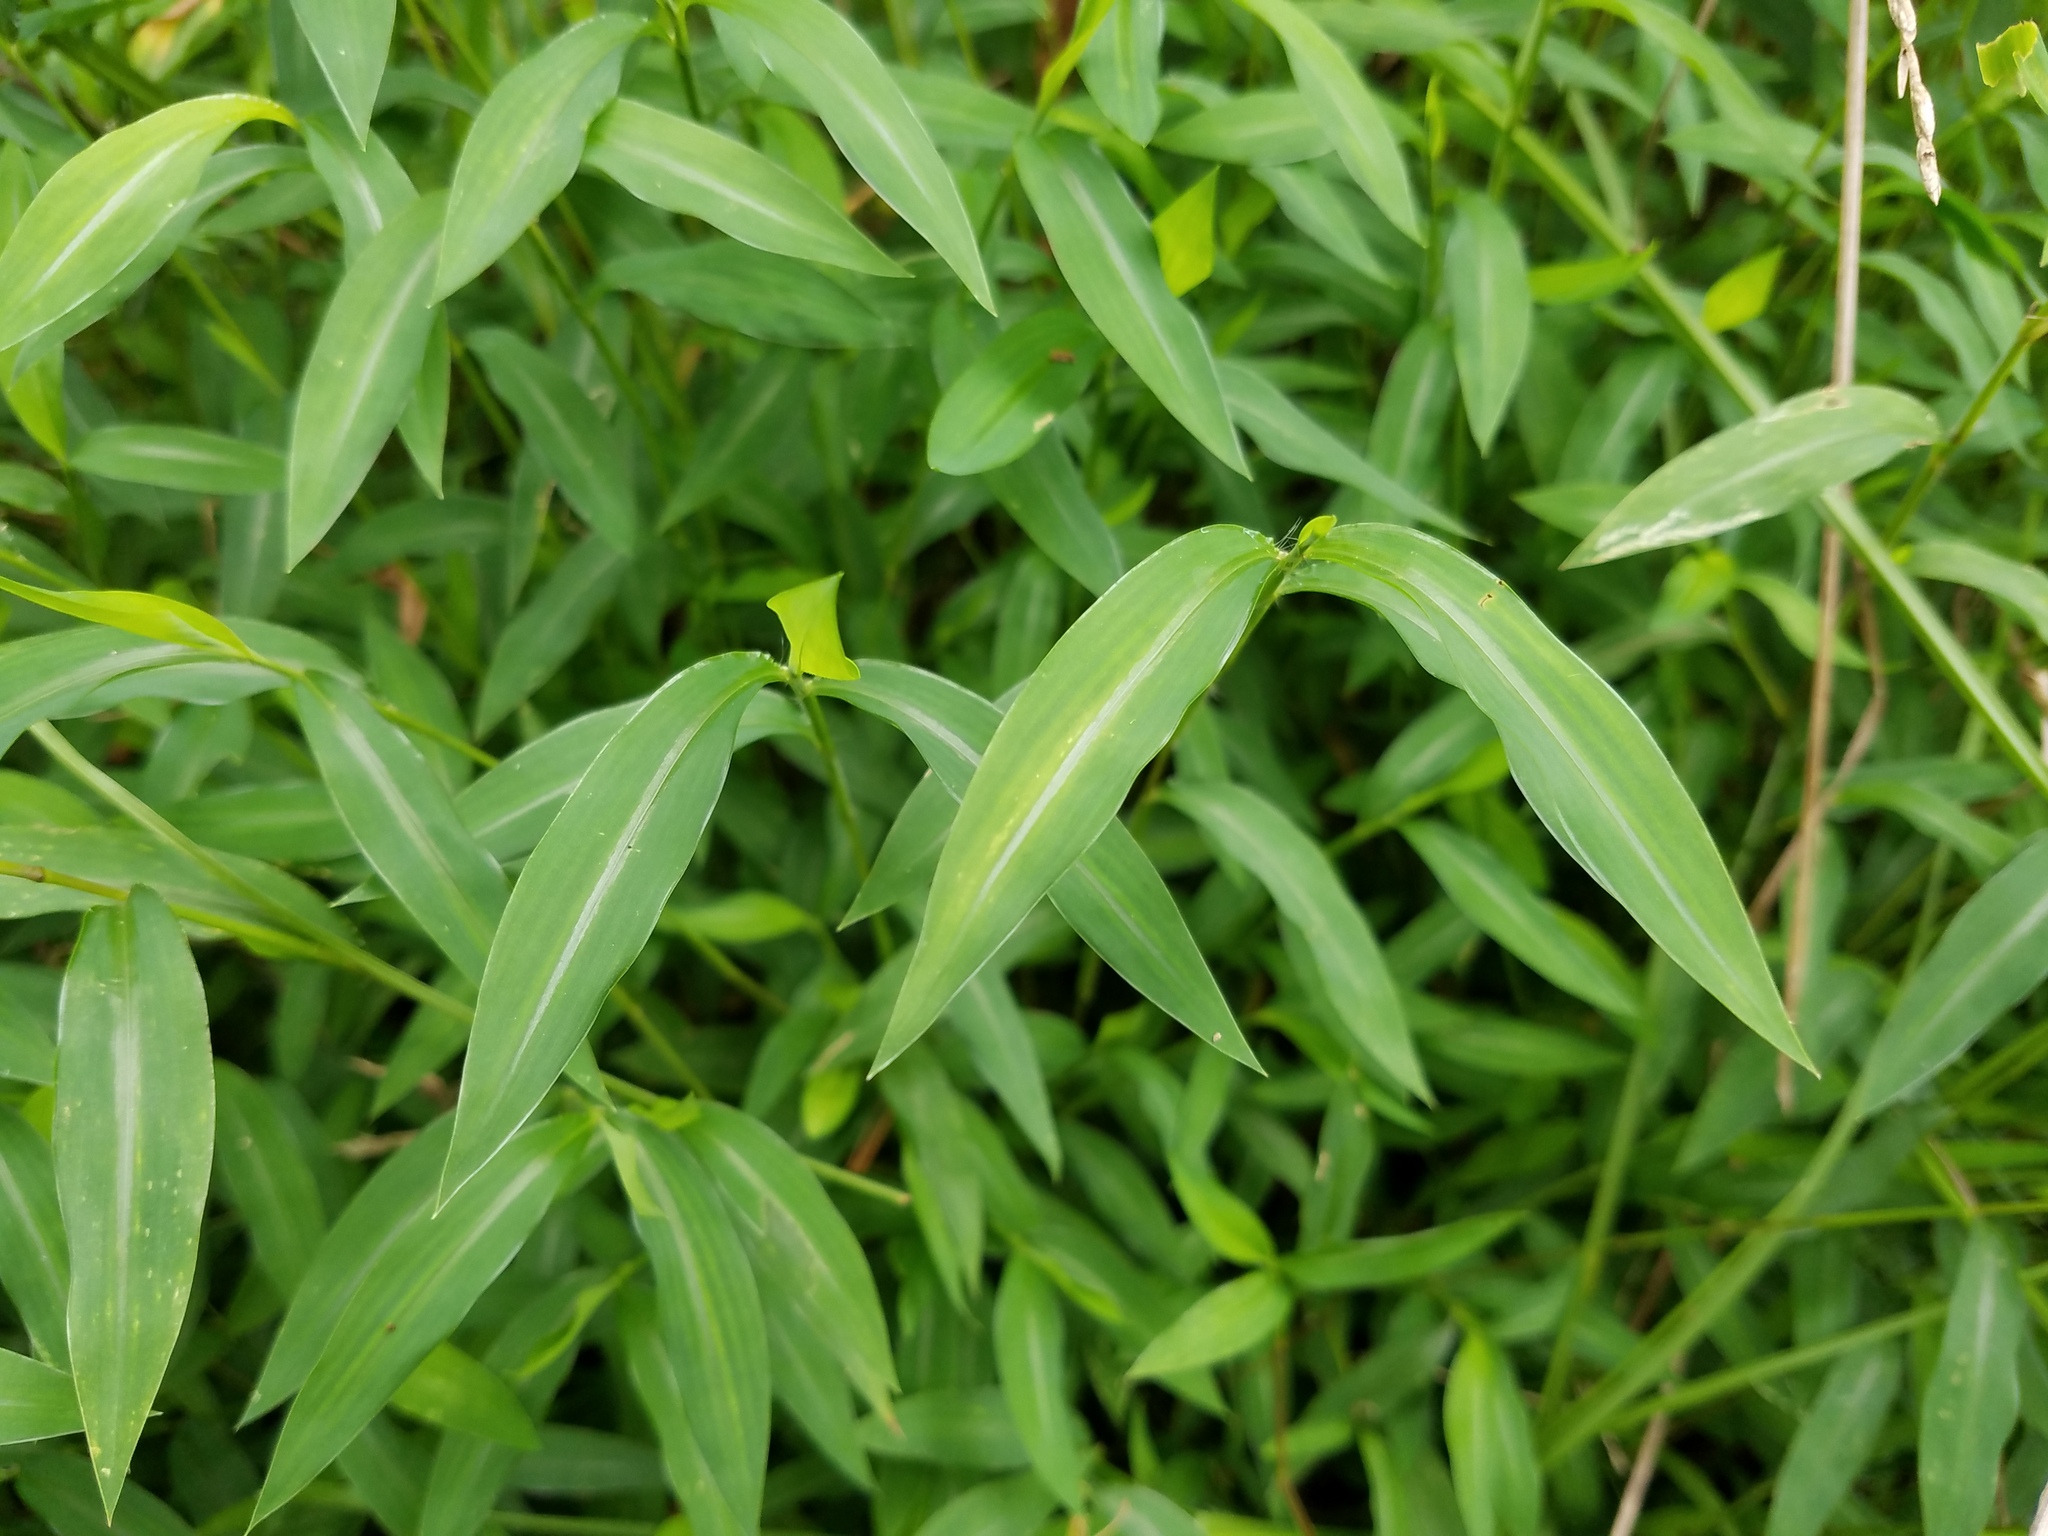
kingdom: Plantae
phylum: Tracheophyta
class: Liliopsida
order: Poales
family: Poaceae
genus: Microstegium
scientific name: Microstegium vimineum
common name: Japanese stiltgrass
